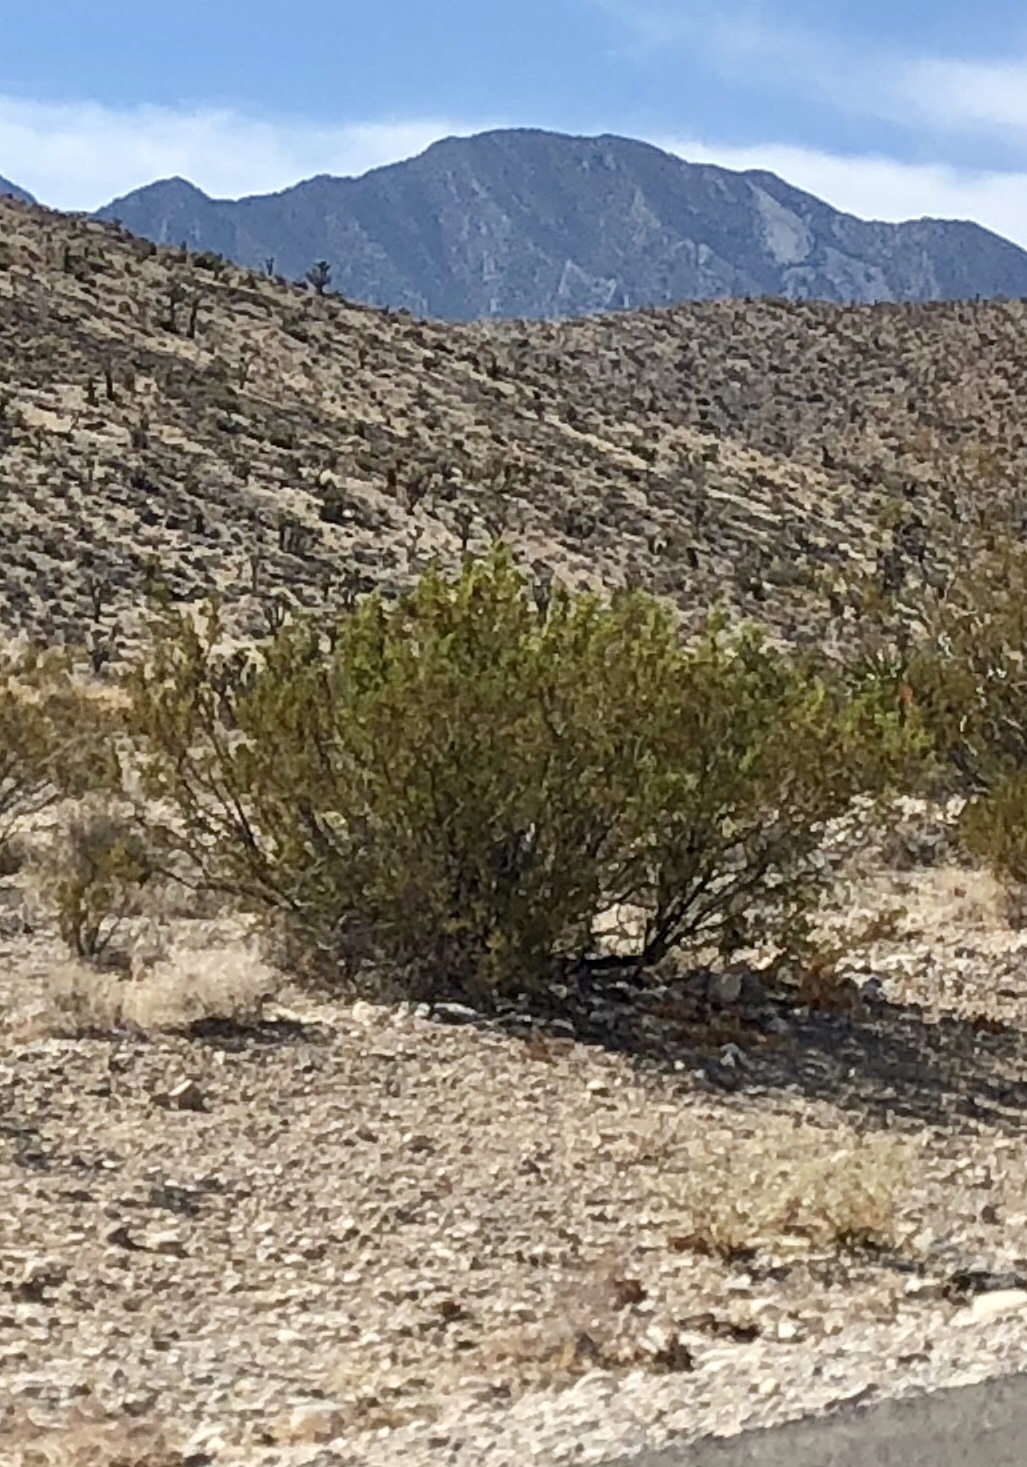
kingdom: Plantae
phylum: Tracheophyta
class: Magnoliopsida
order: Zygophyllales
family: Zygophyllaceae
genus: Larrea
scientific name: Larrea tridentata
